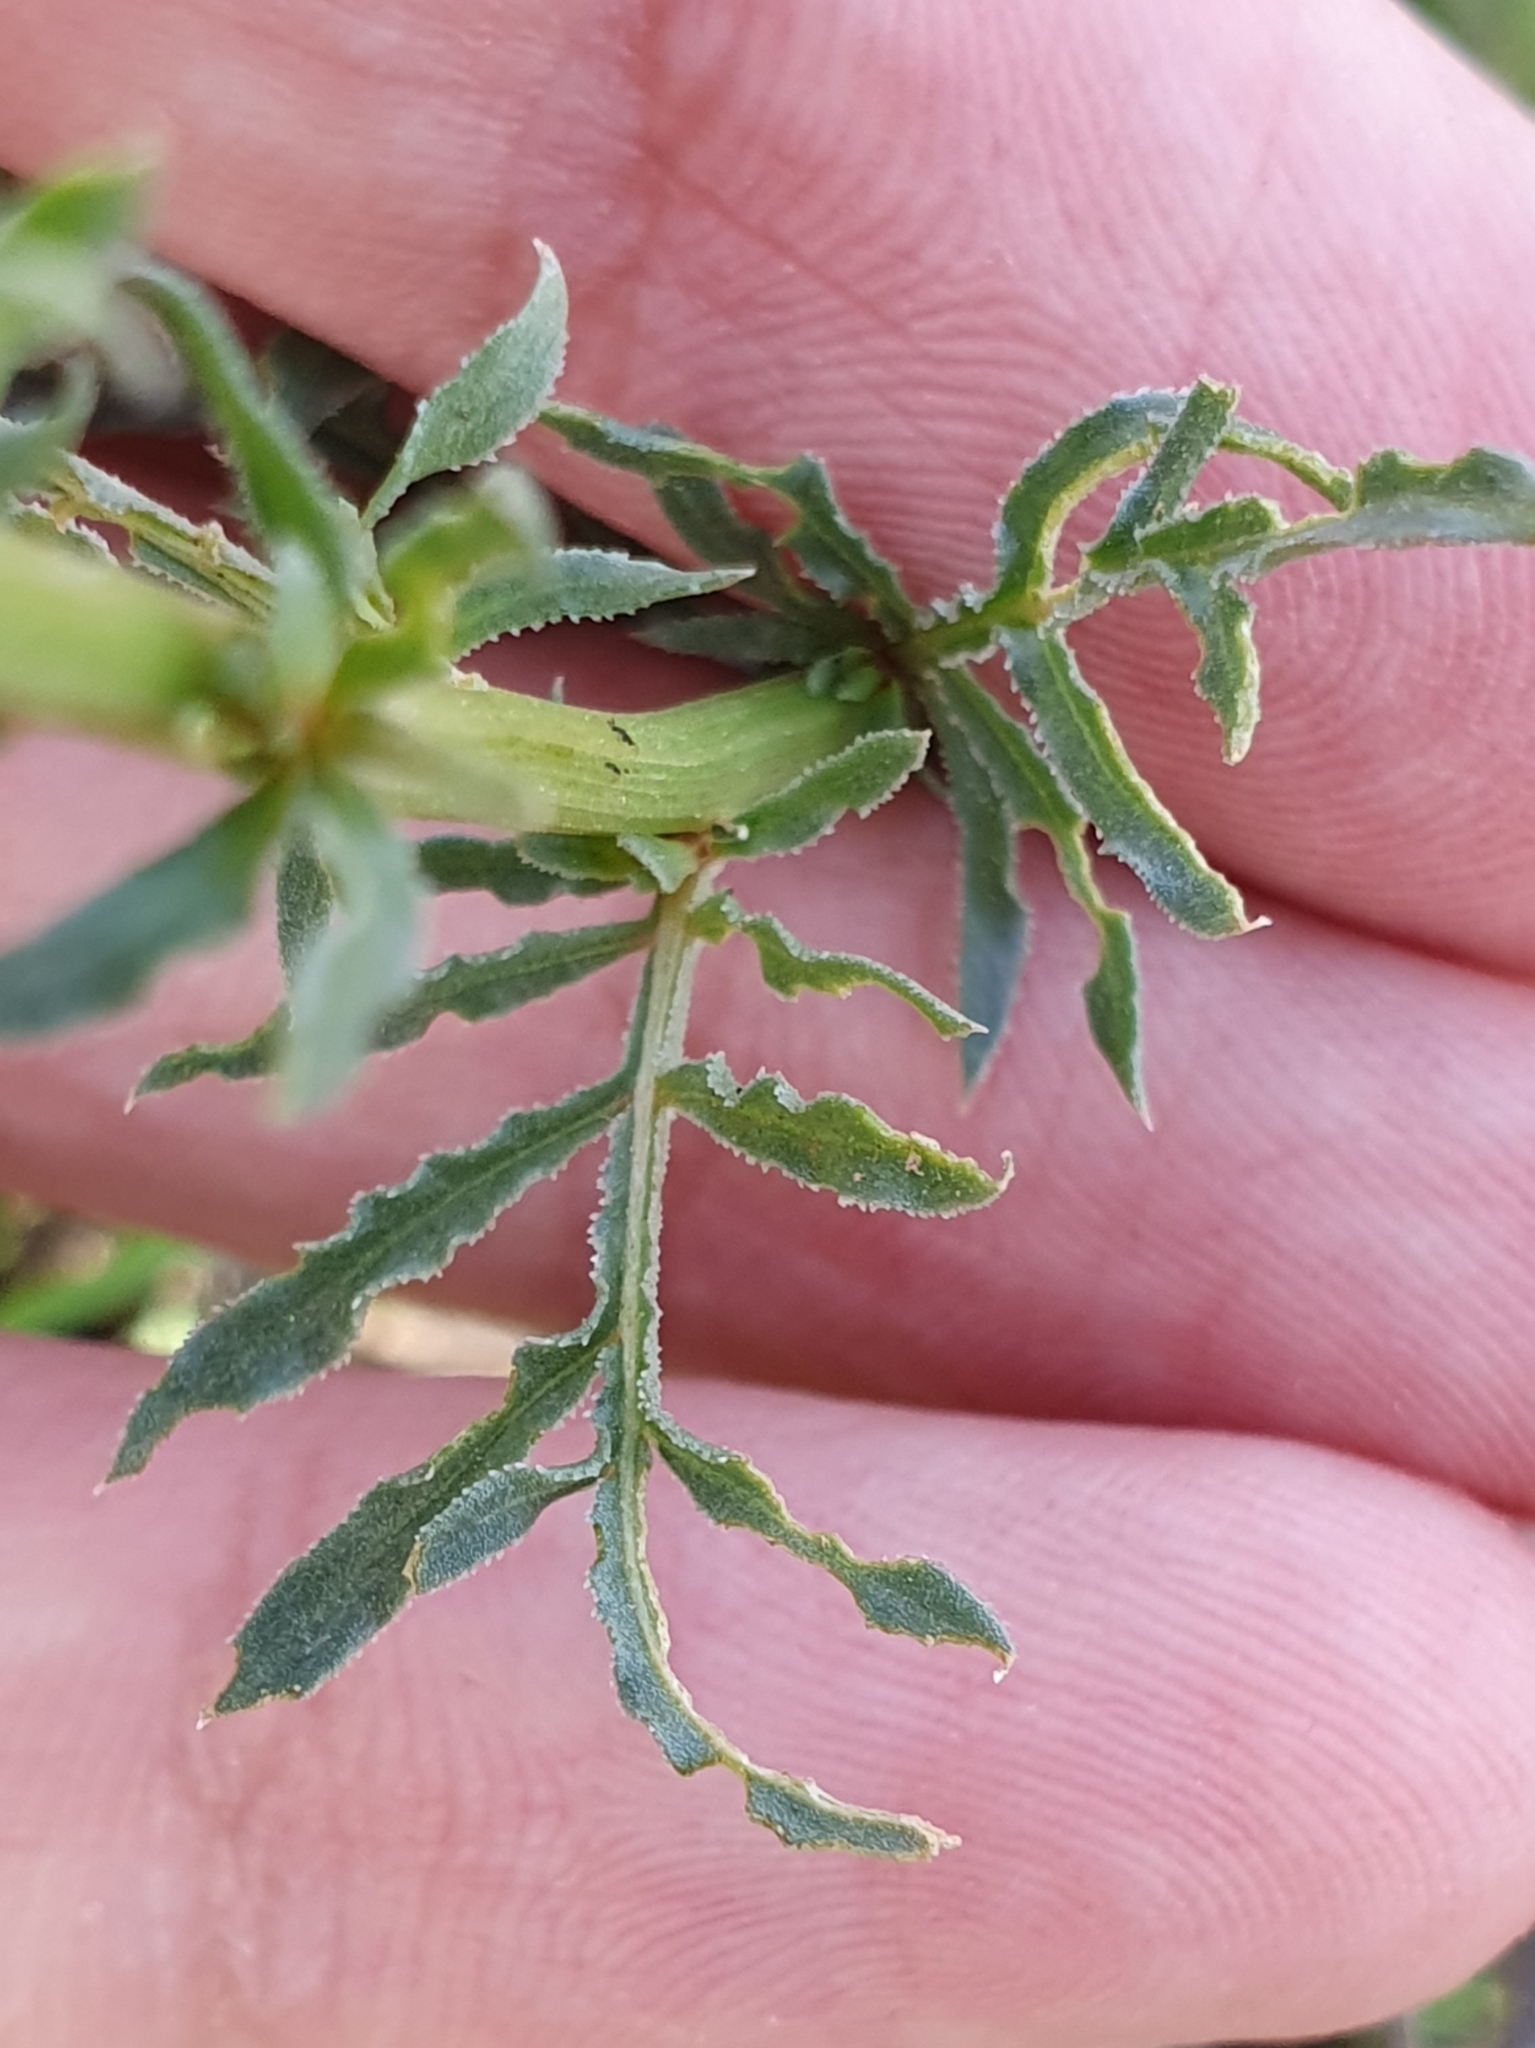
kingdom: Plantae
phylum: Tracheophyta
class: Magnoliopsida
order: Brassicales
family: Resedaceae
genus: Reseda
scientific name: Reseda alba
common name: White mignonette
